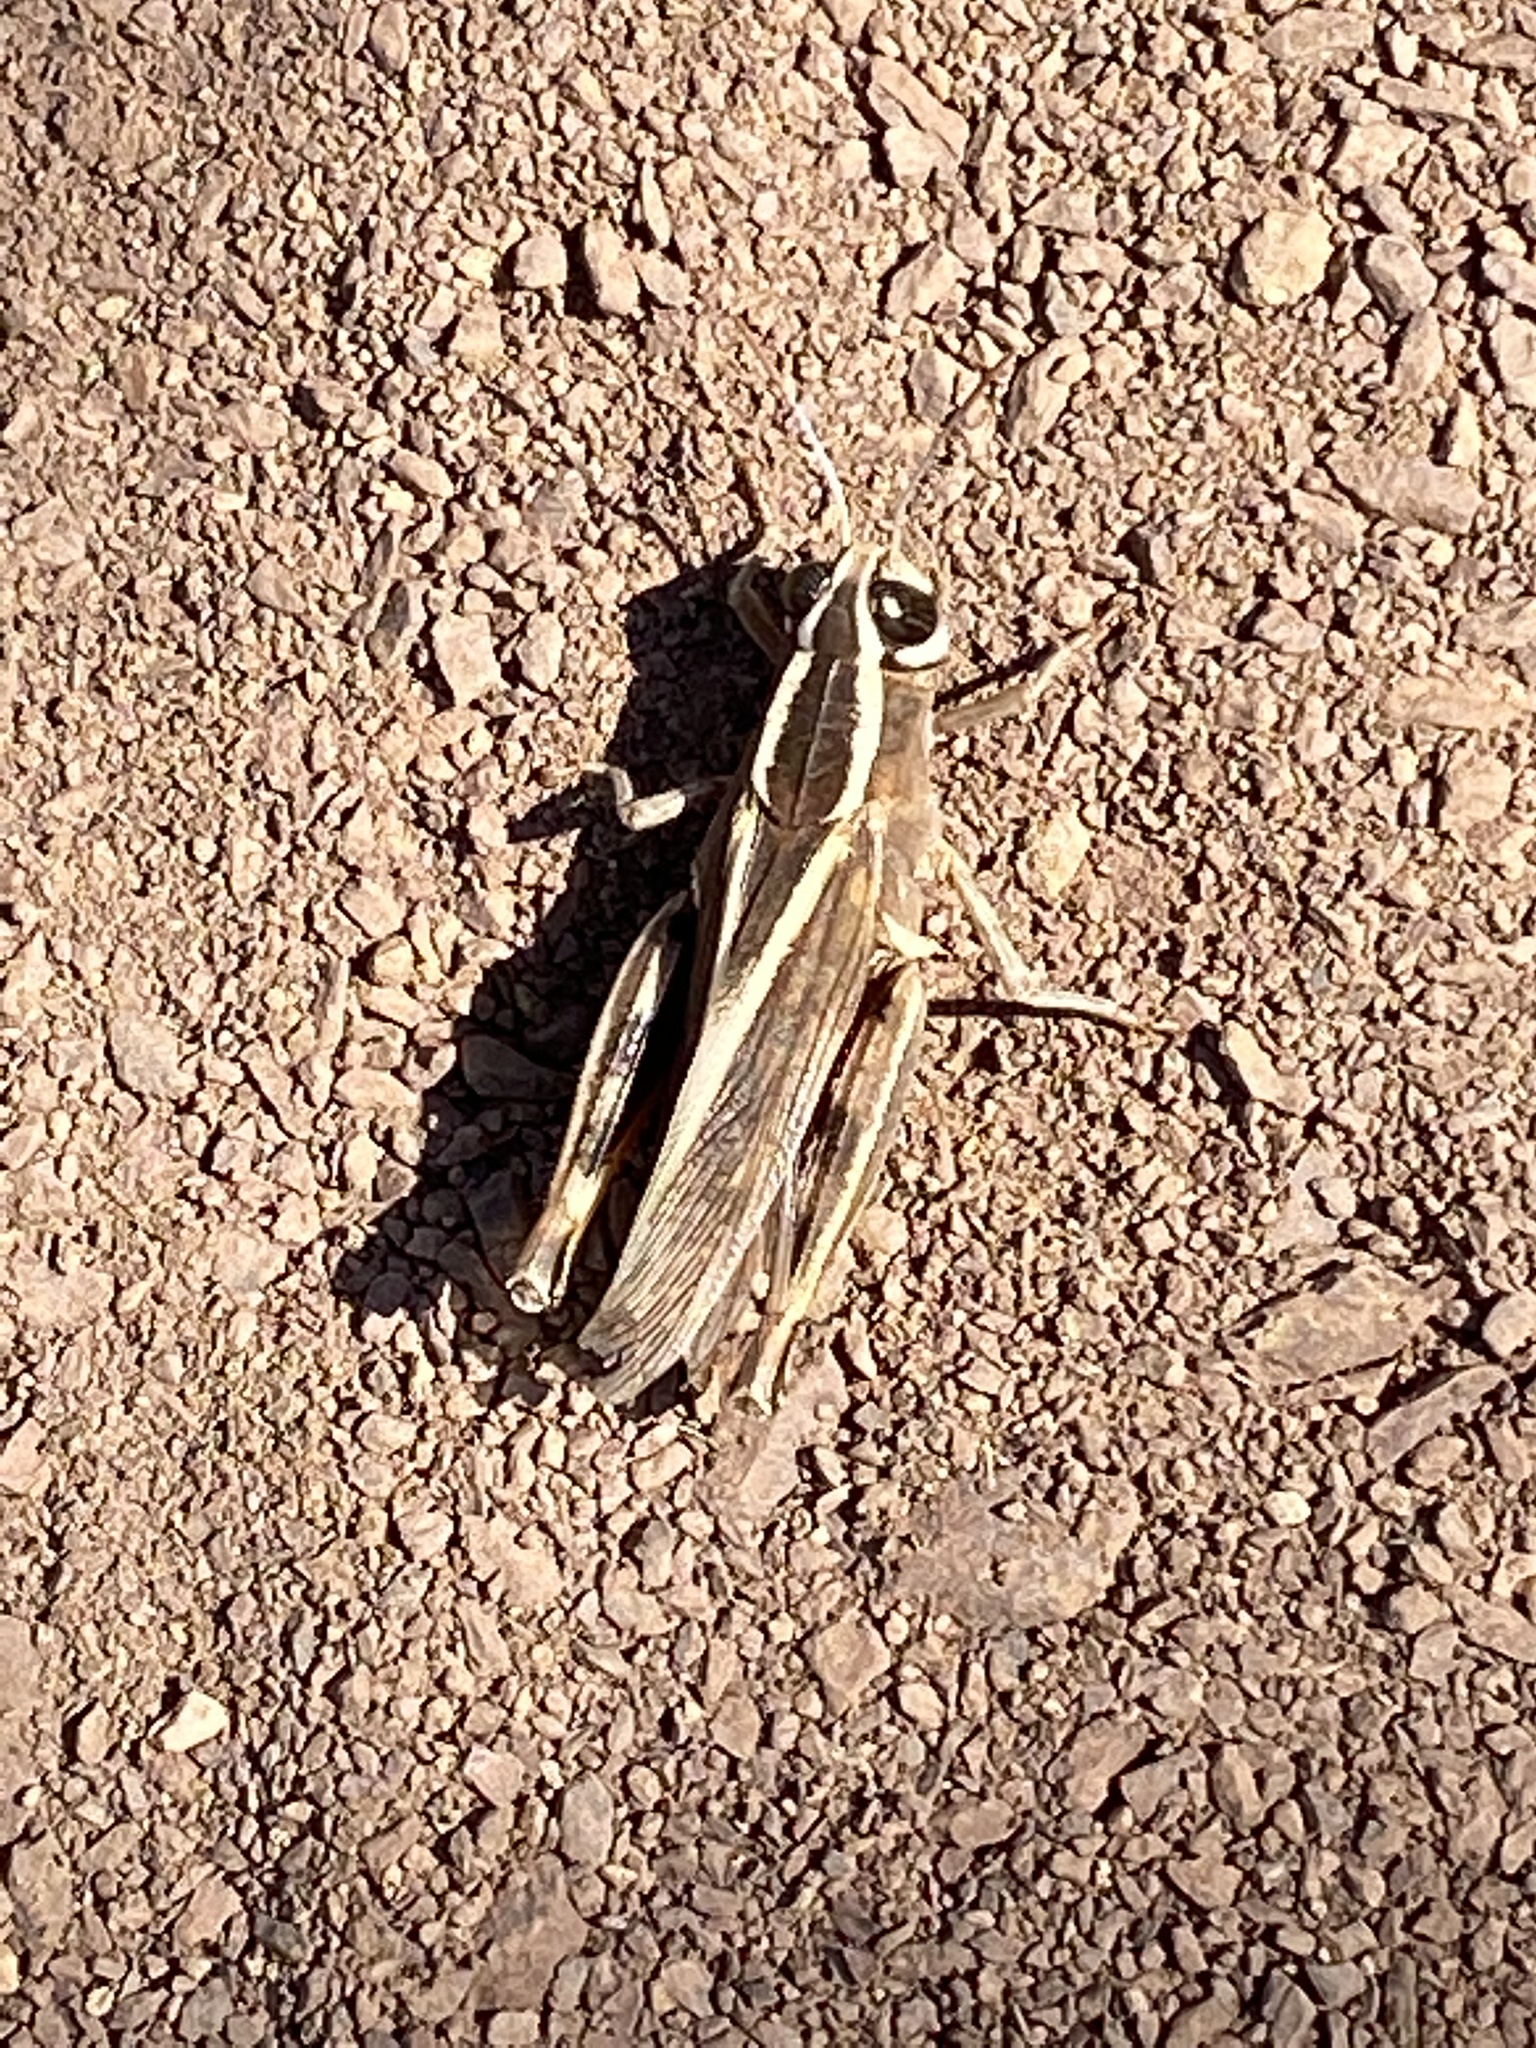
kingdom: Animalia
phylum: Arthropoda
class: Insecta
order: Orthoptera
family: Acrididae
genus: Calliptamus
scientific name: Calliptamus
